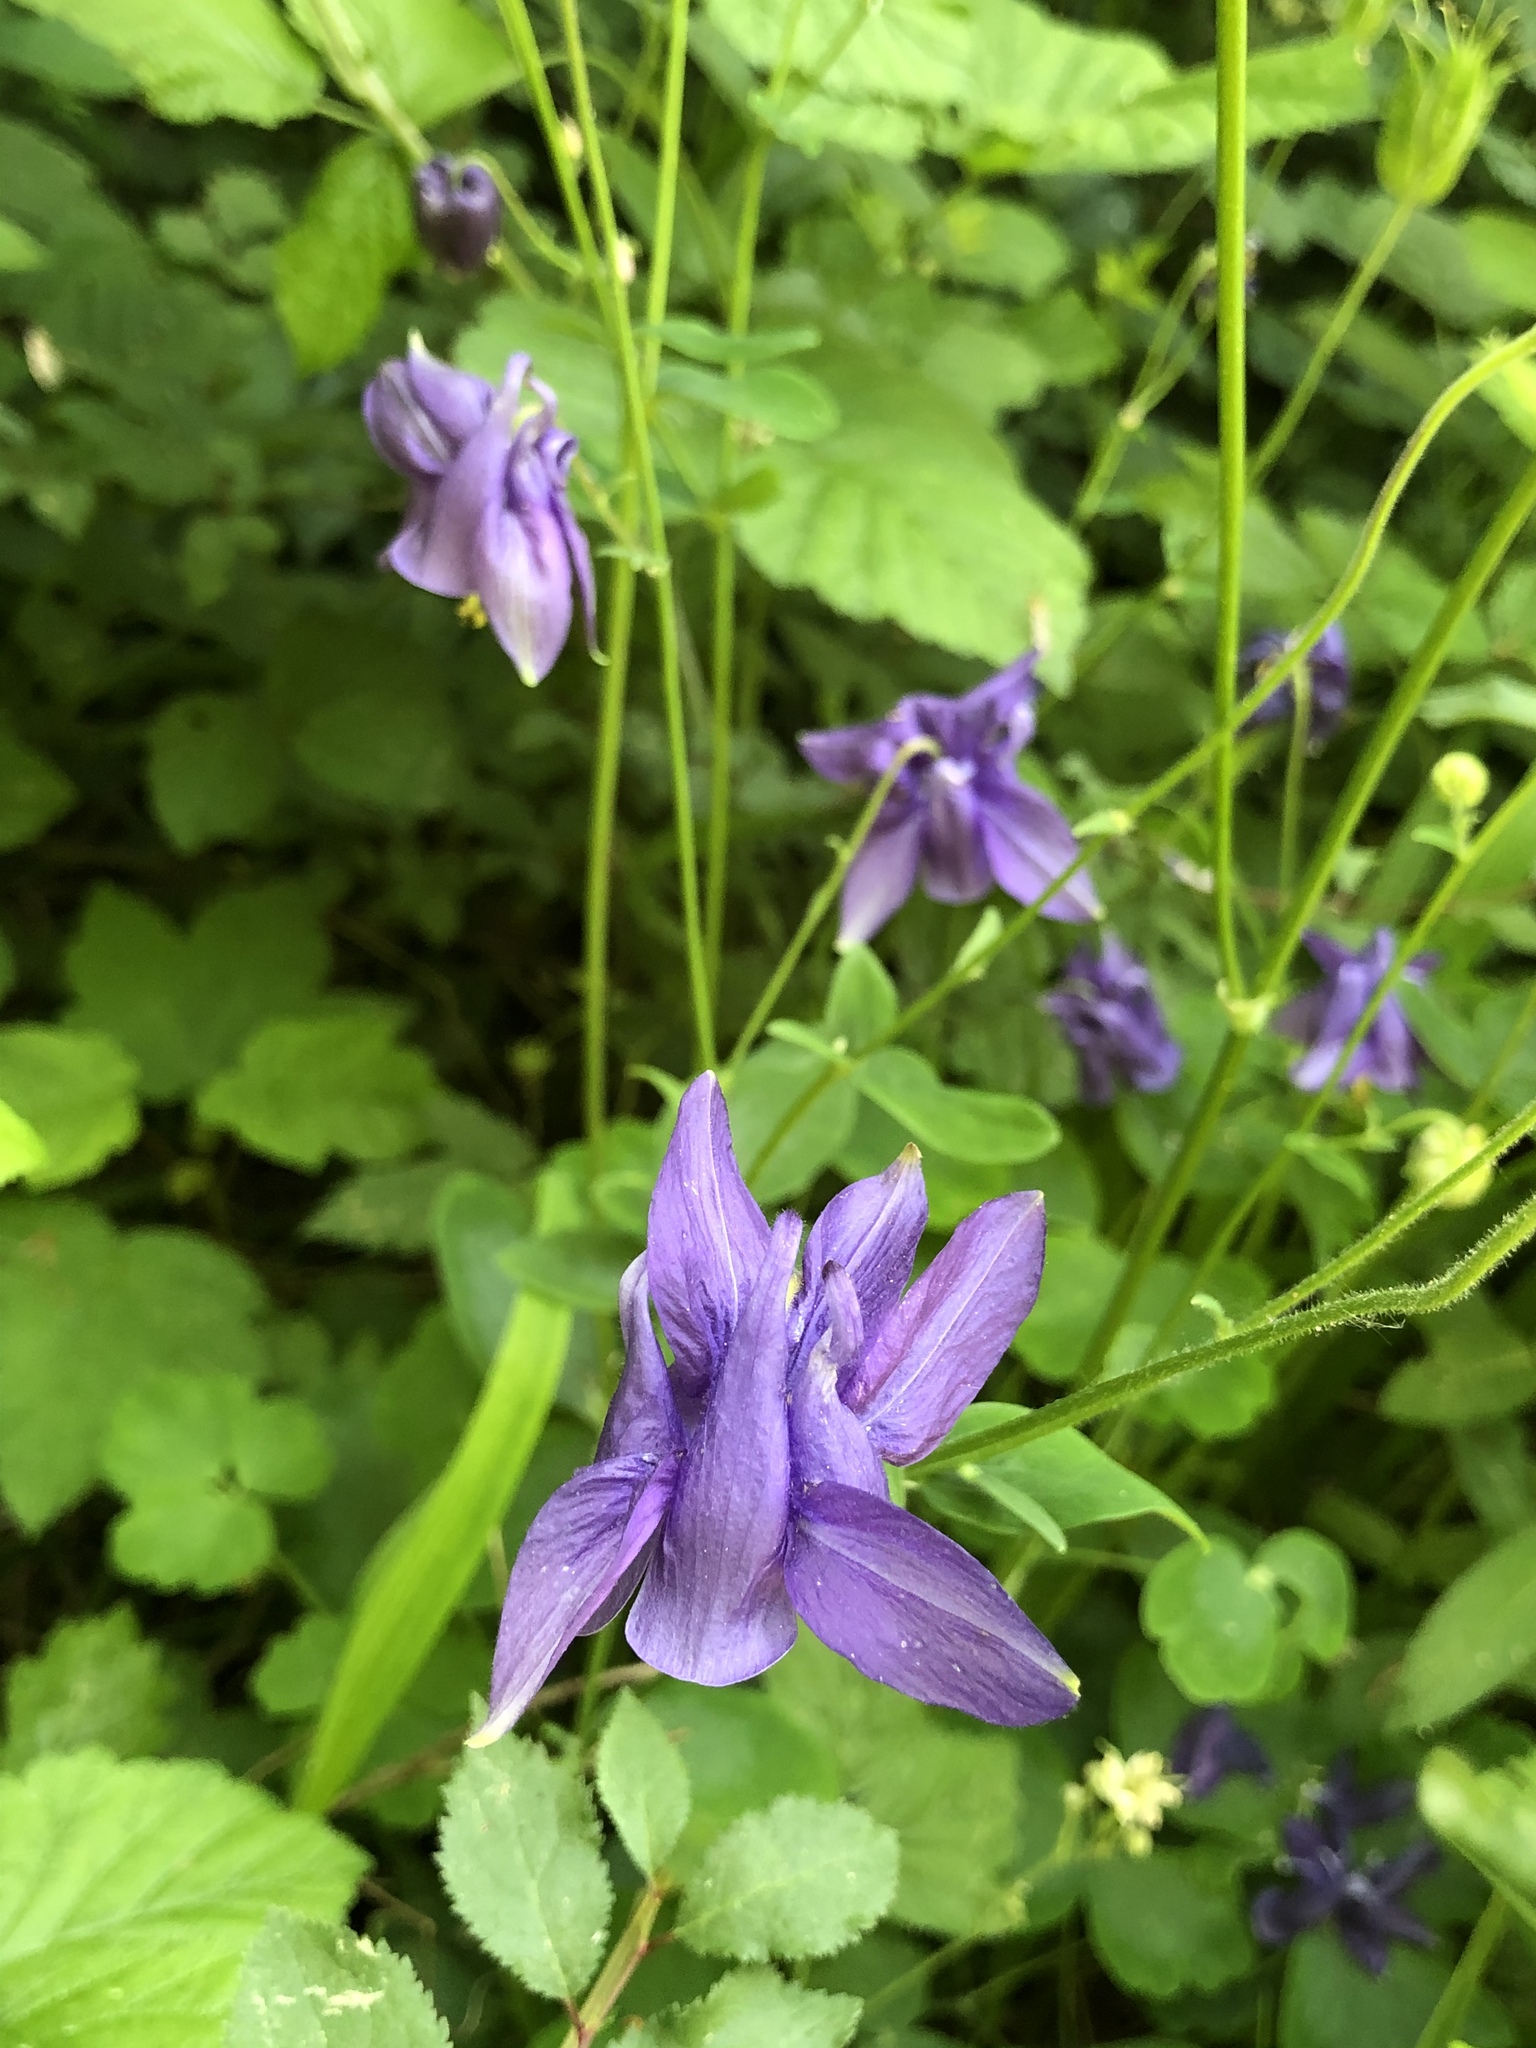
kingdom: Plantae
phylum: Tracheophyta
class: Magnoliopsida
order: Ranunculales
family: Ranunculaceae
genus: Aquilegia
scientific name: Aquilegia vulgaris
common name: Columbine
